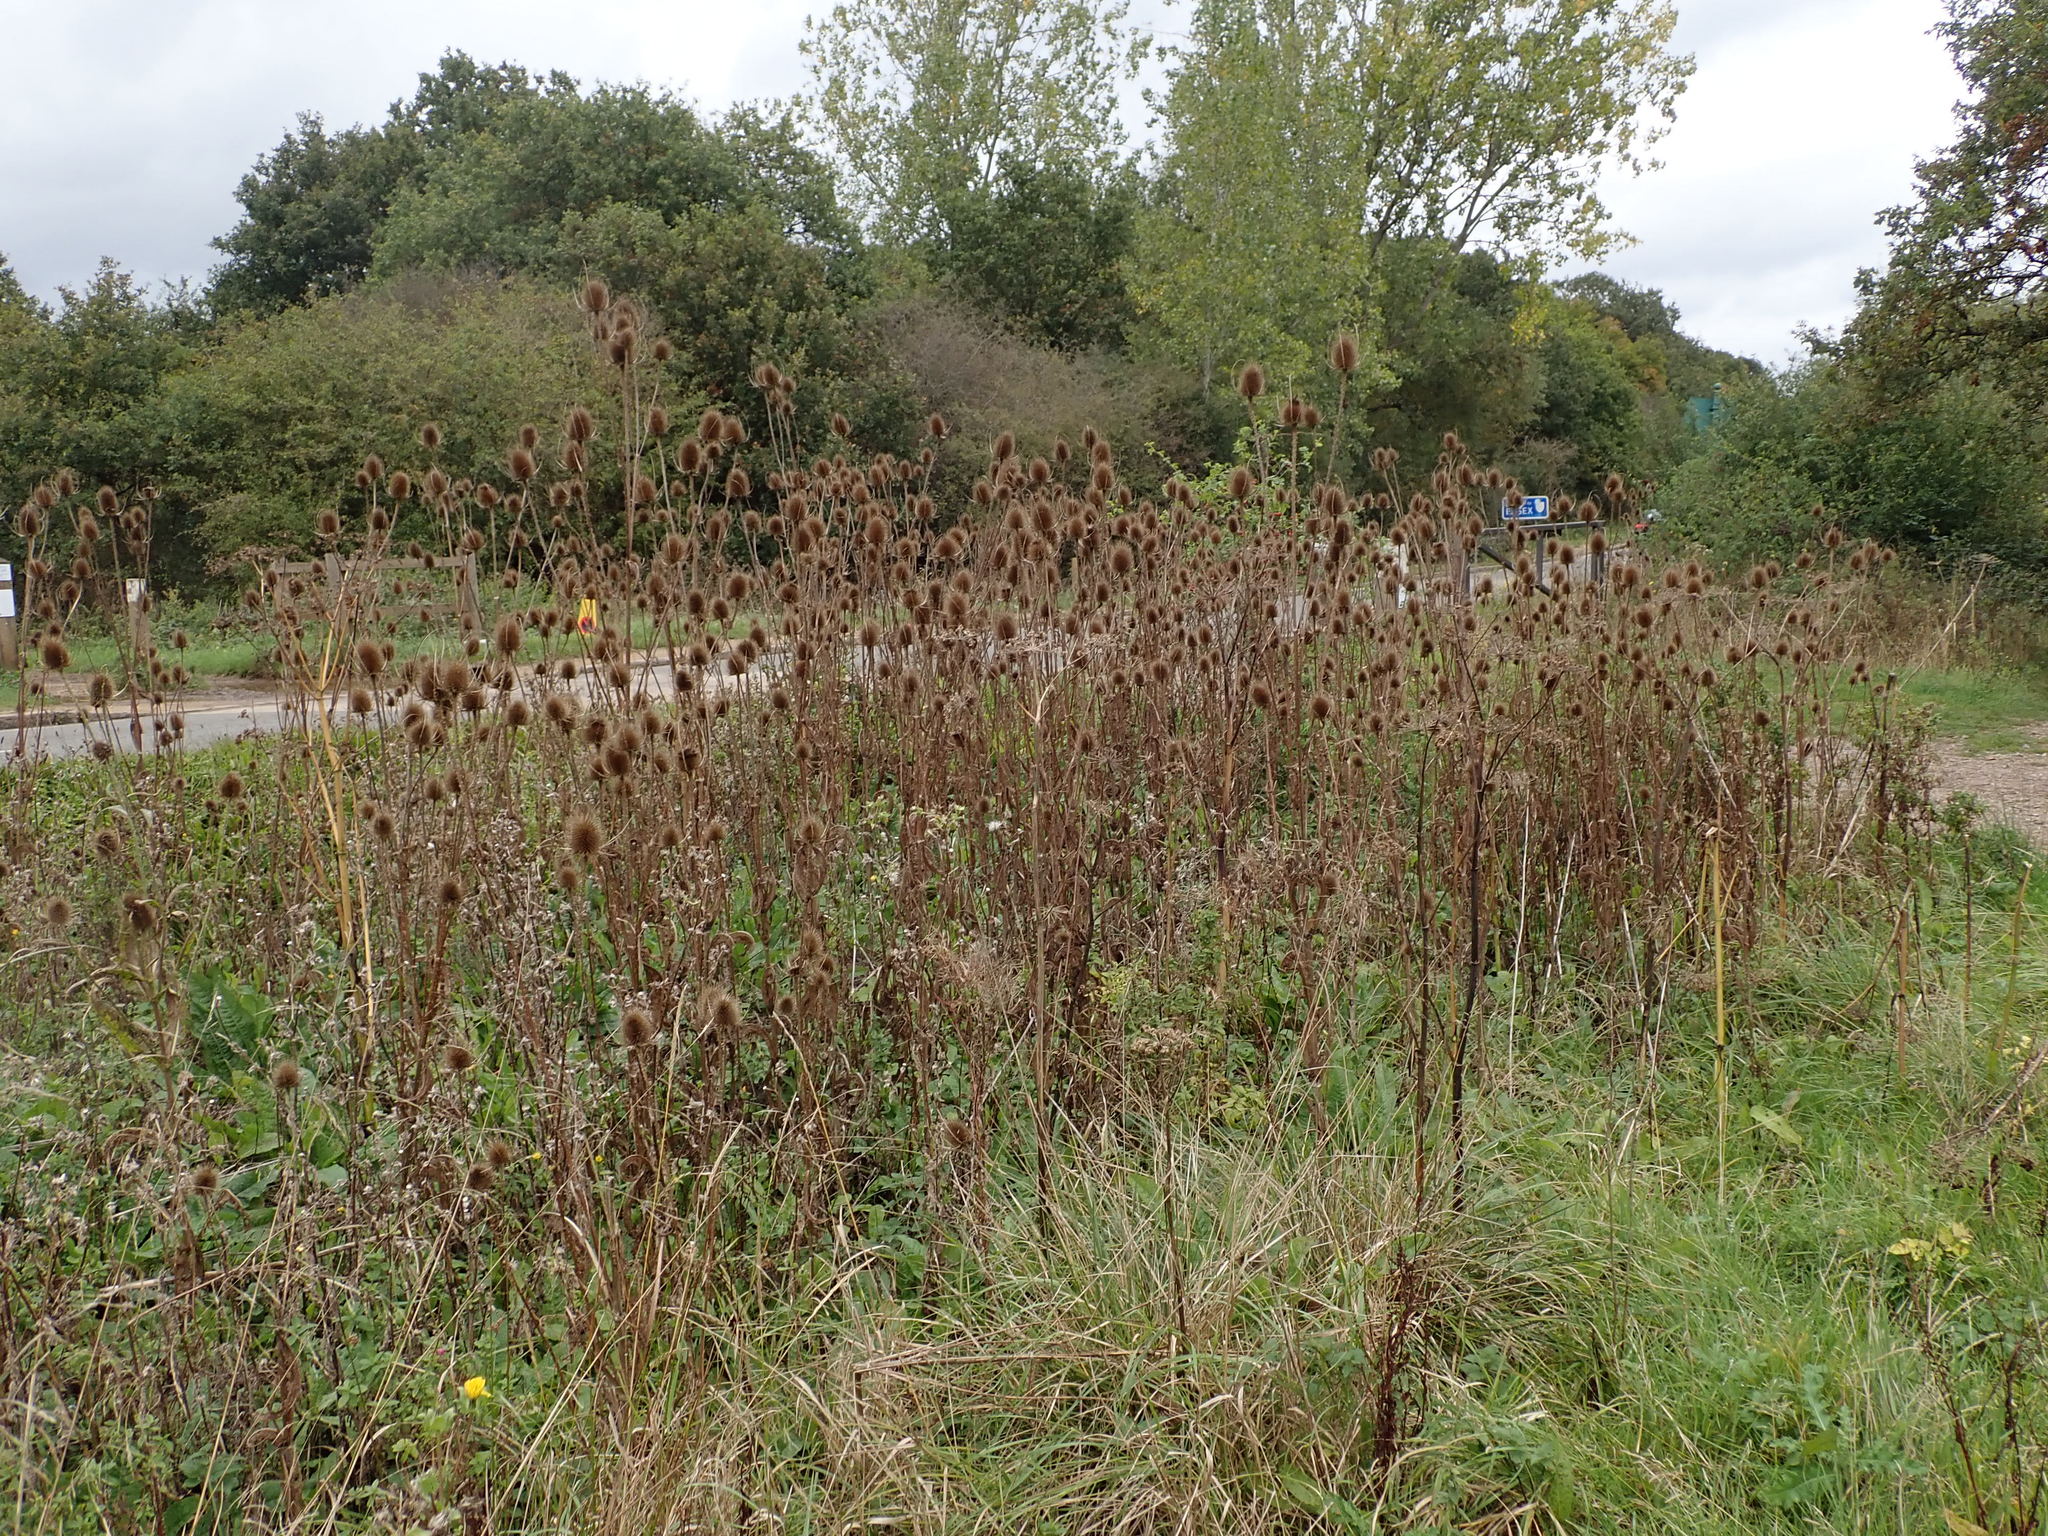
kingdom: Plantae
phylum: Tracheophyta
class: Magnoliopsida
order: Dipsacales
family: Caprifoliaceae
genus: Dipsacus
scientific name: Dipsacus fullonum
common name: Teasel
